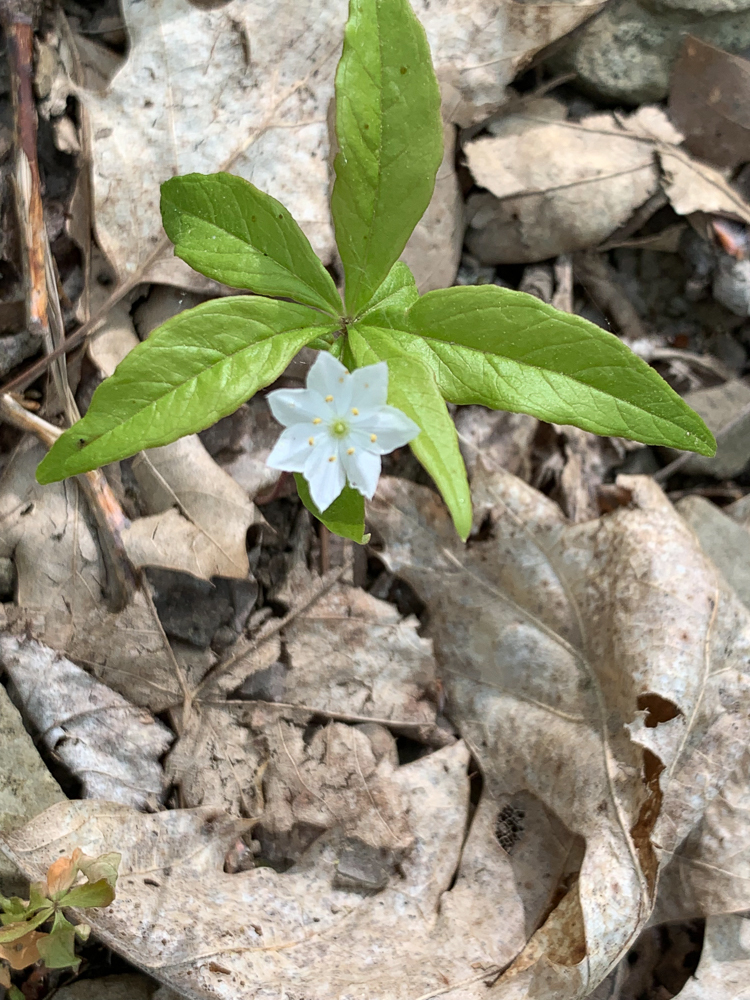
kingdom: Plantae
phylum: Tracheophyta
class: Magnoliopsida
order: Ericales
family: Primulaceae
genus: Lysimachia
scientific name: Lysimachia borealis
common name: American starflower
